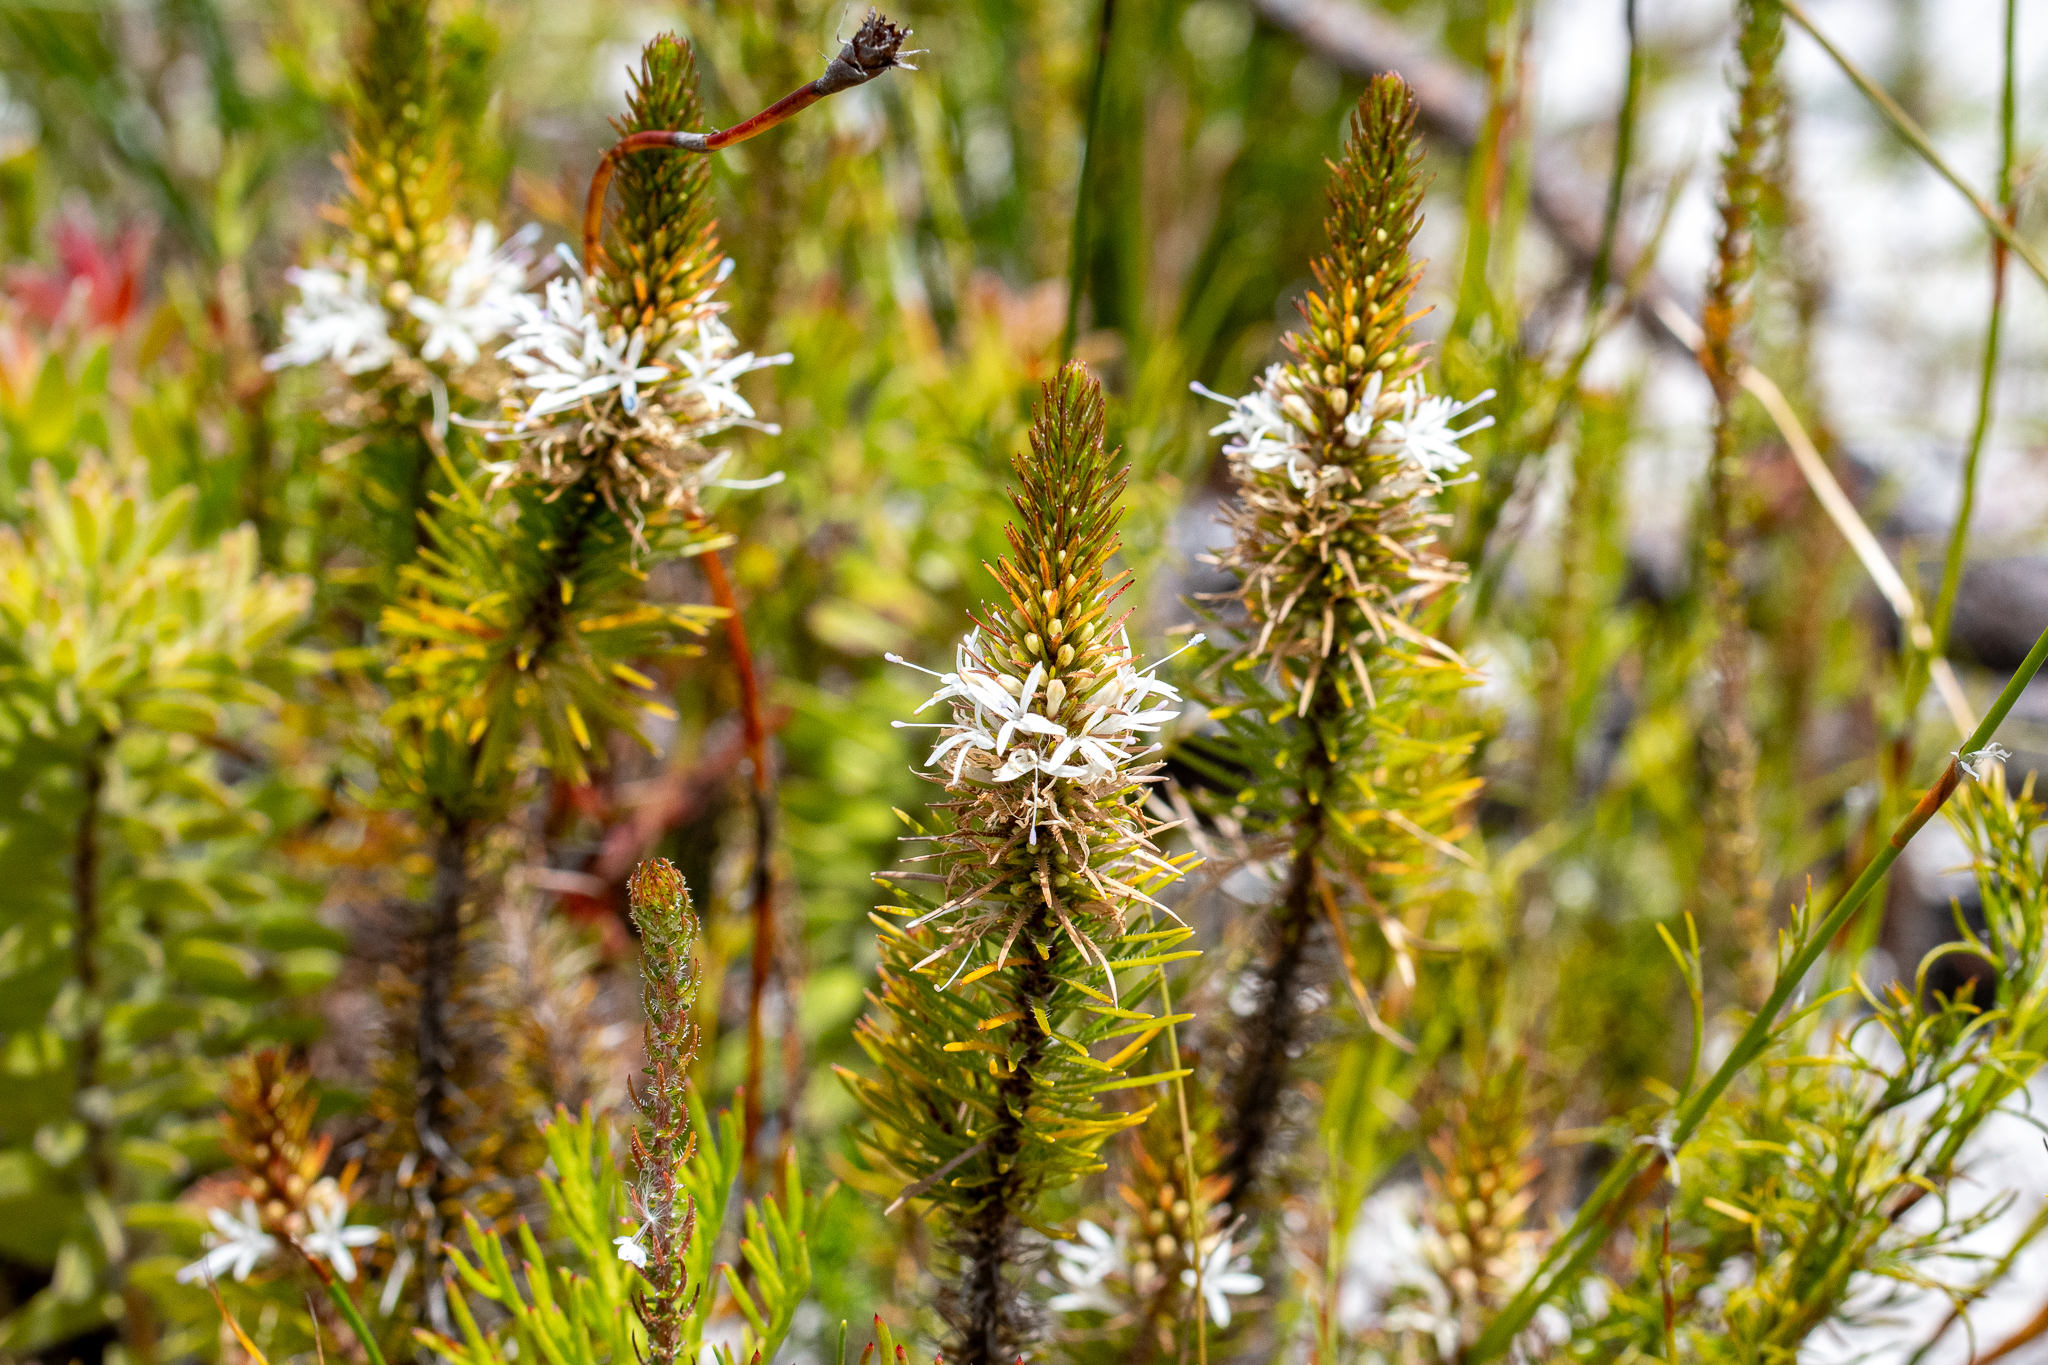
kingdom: Plantae
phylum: Tracheophyta
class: Magnoliopsida
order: Asterales
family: Campanulaceae
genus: Merciera
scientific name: Merciera leptoloba
